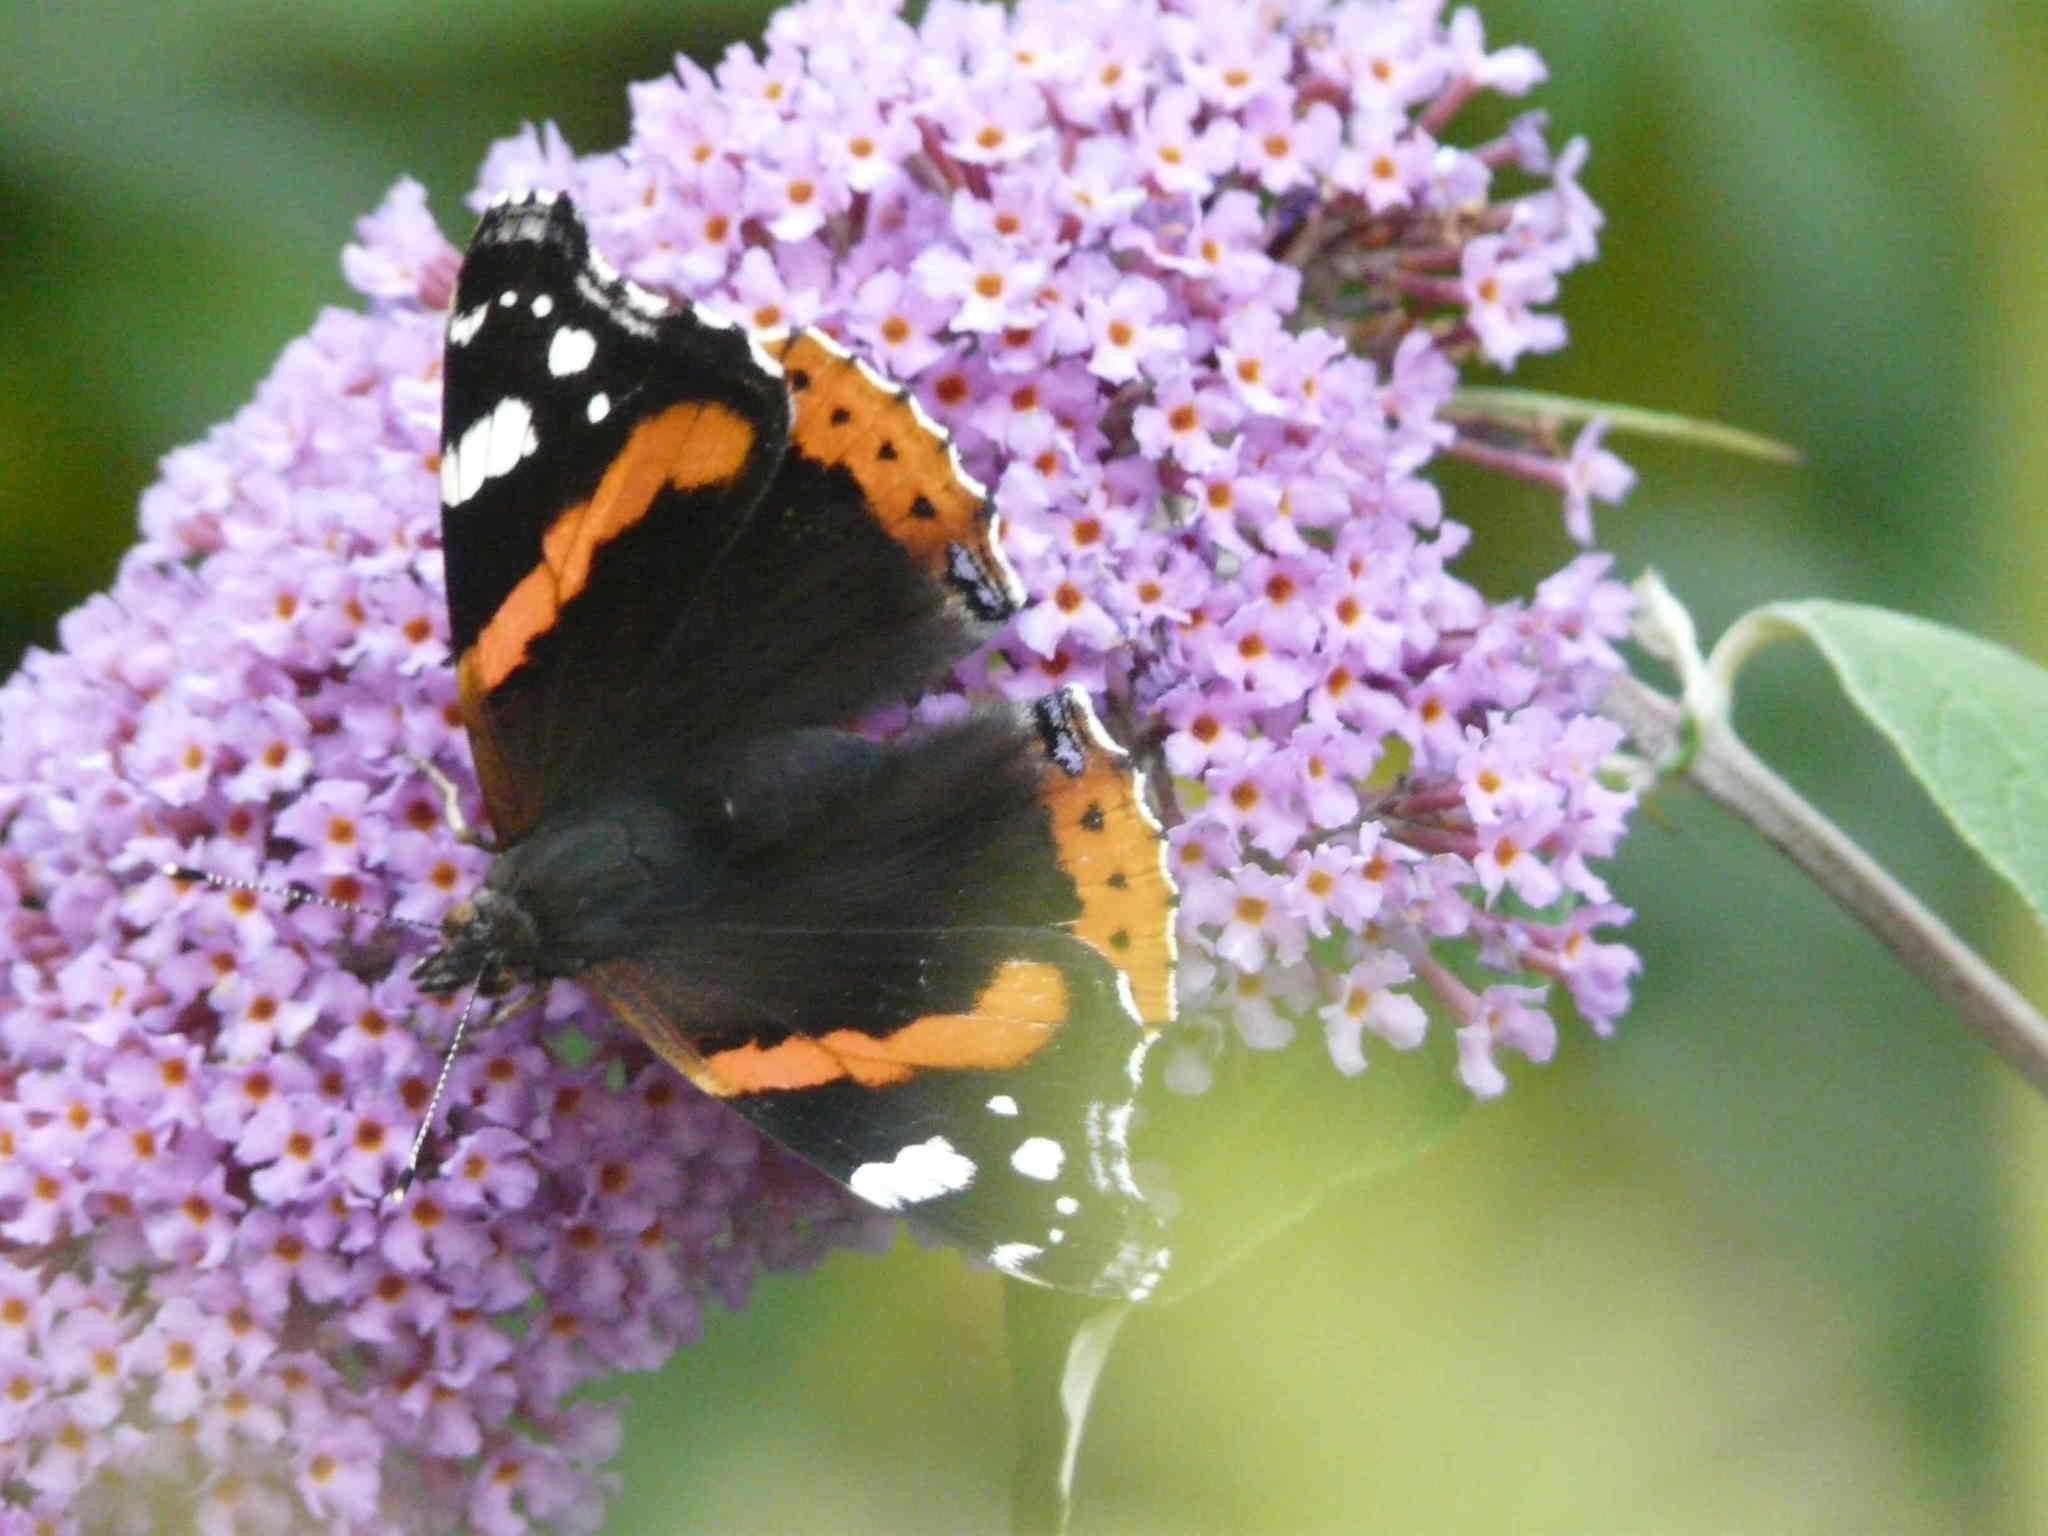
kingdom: Animalia
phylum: Arthropoda
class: Insecta
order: Lepidoptera
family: Nymphalidae
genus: Vanessa
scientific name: Vanessa atalanta
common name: Red admiral
